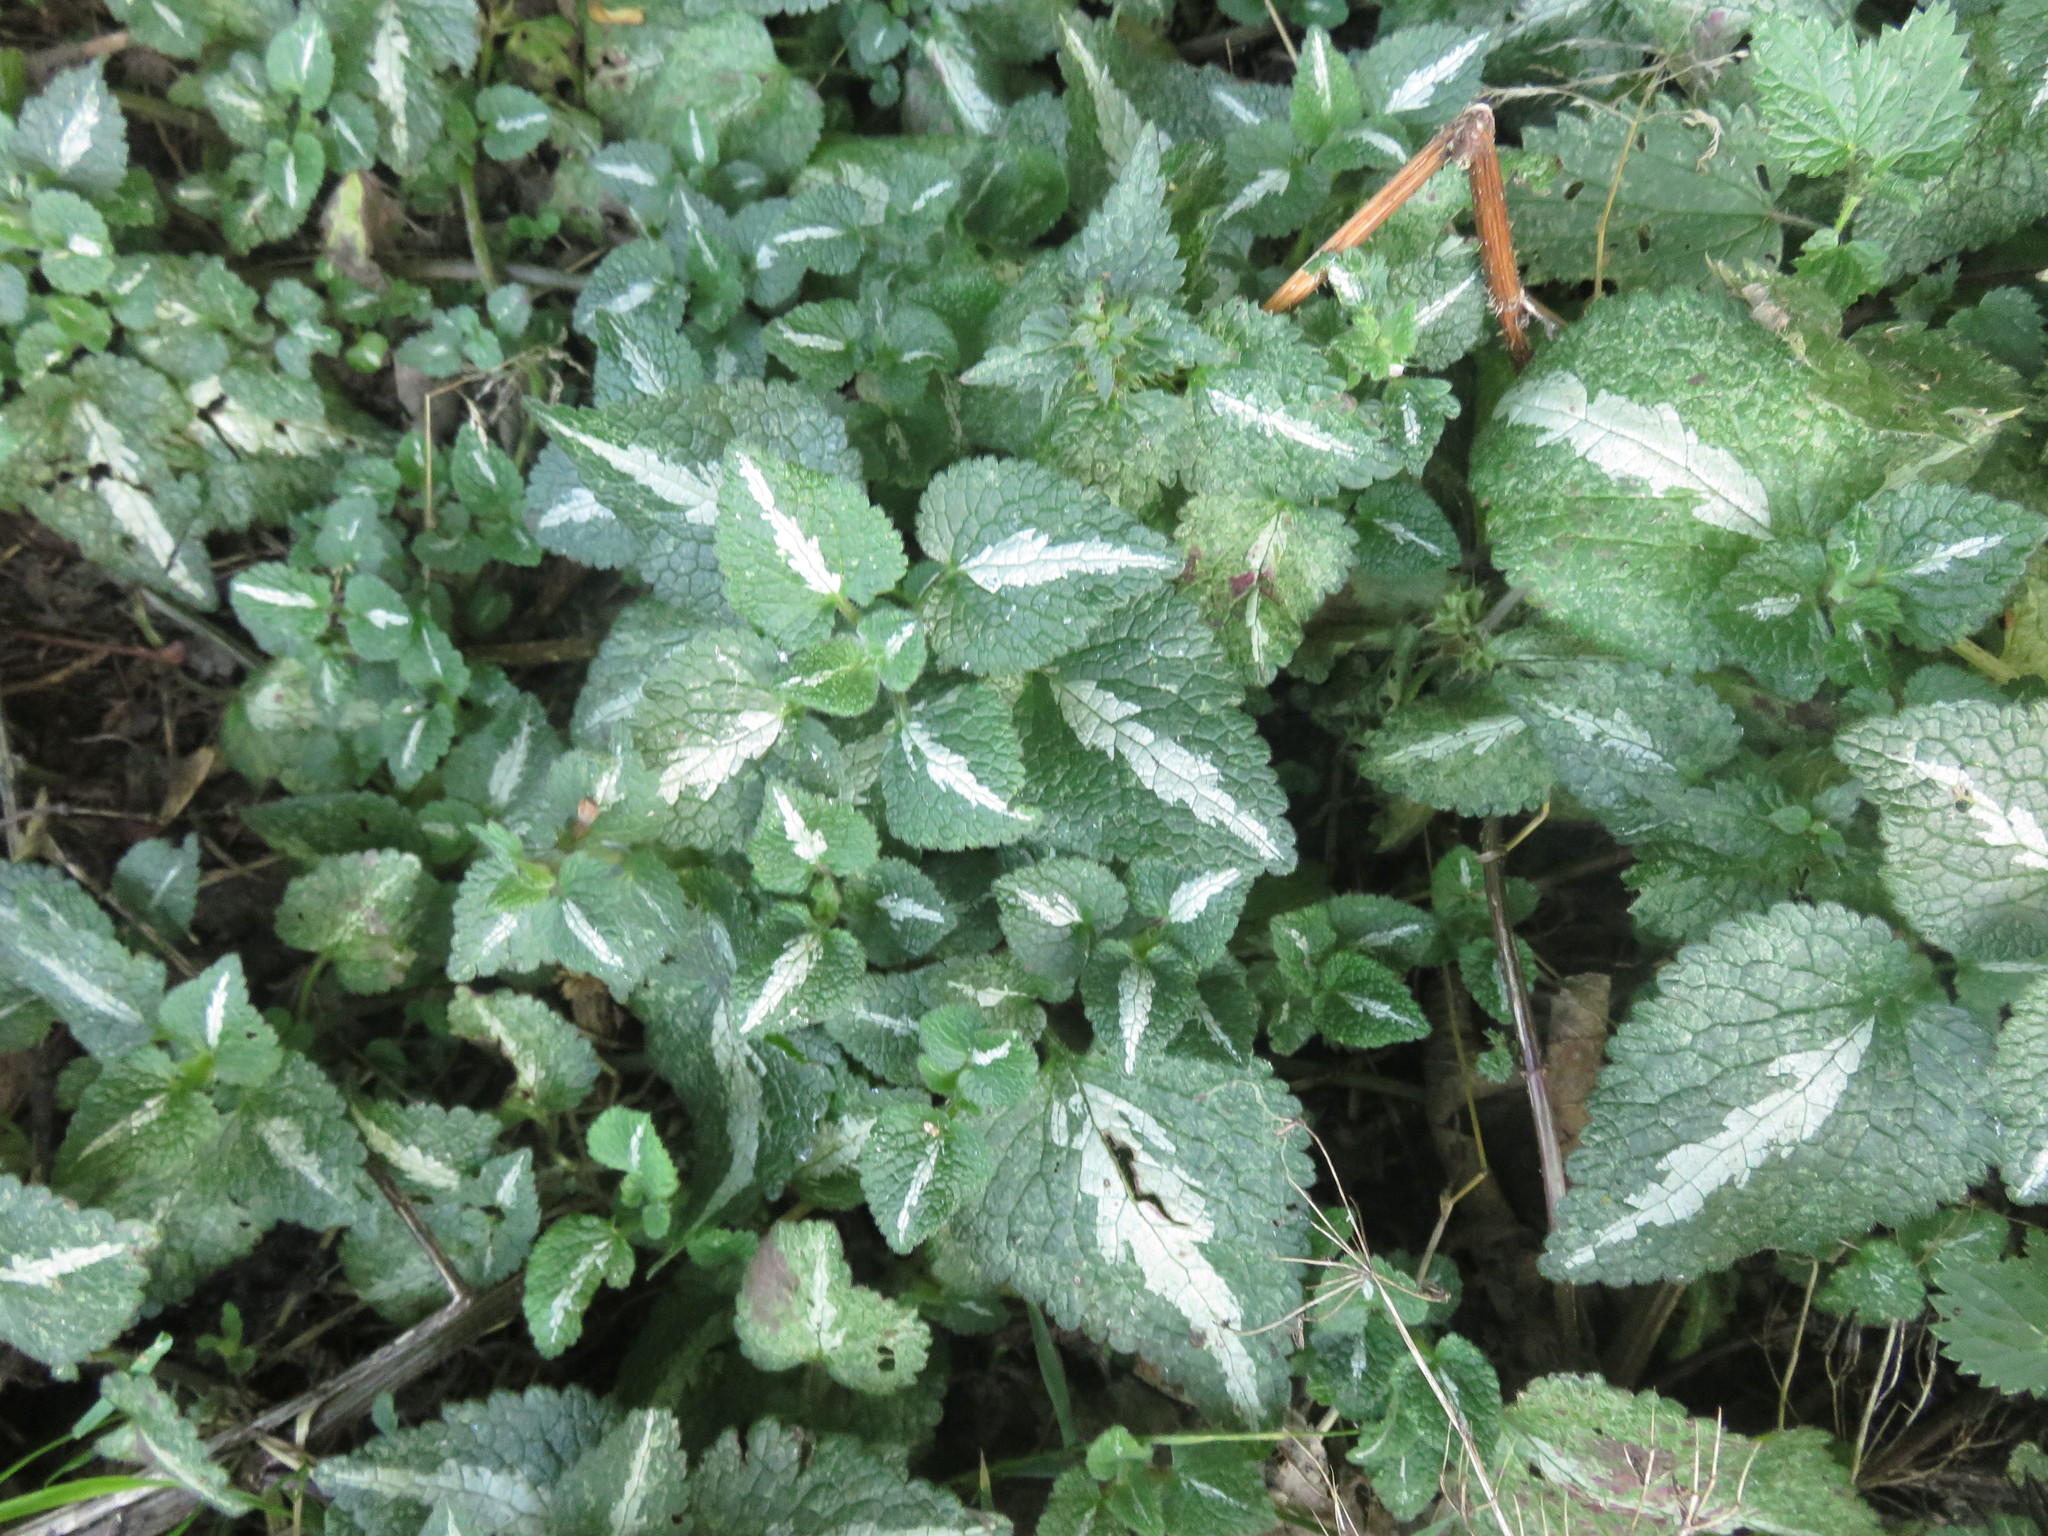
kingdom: Plantae
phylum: Tracheophyta
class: Magnoliopsida
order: Lamiales
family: Lamiaceae
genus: Lamium
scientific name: Lamium maculatum
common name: Spotted dead-nettle
